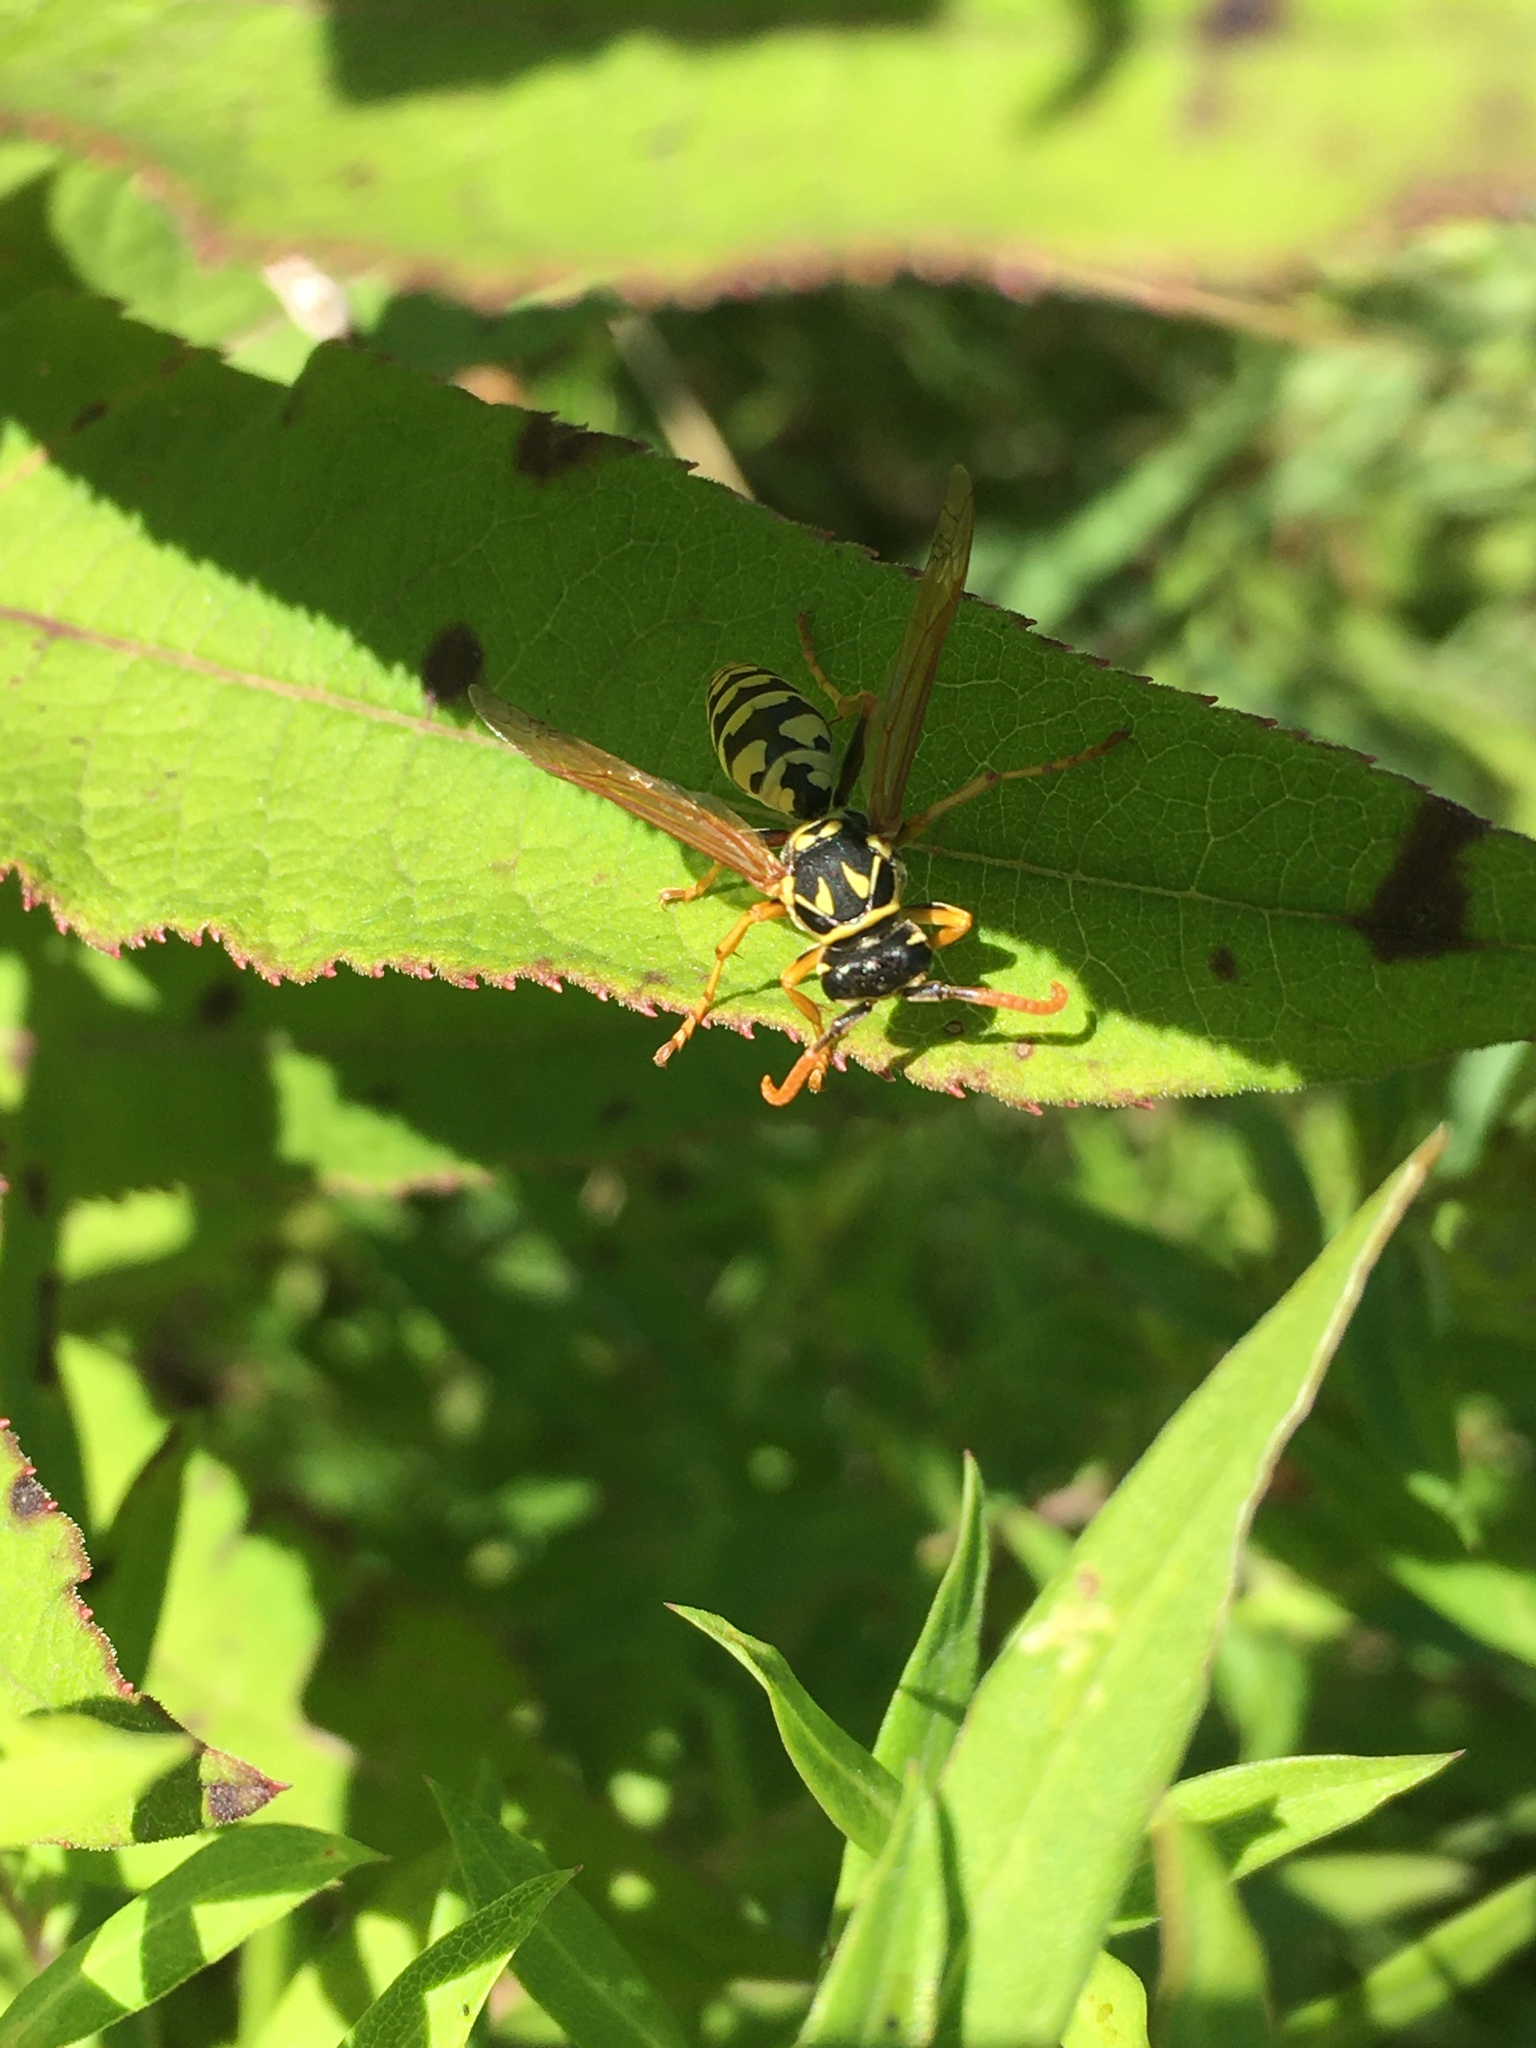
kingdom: Animalia
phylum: Arthropoda
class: Insecta
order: Hymenoptera
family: Eumenidae
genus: Polistes
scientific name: Polistes dominula
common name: Paper wasp
